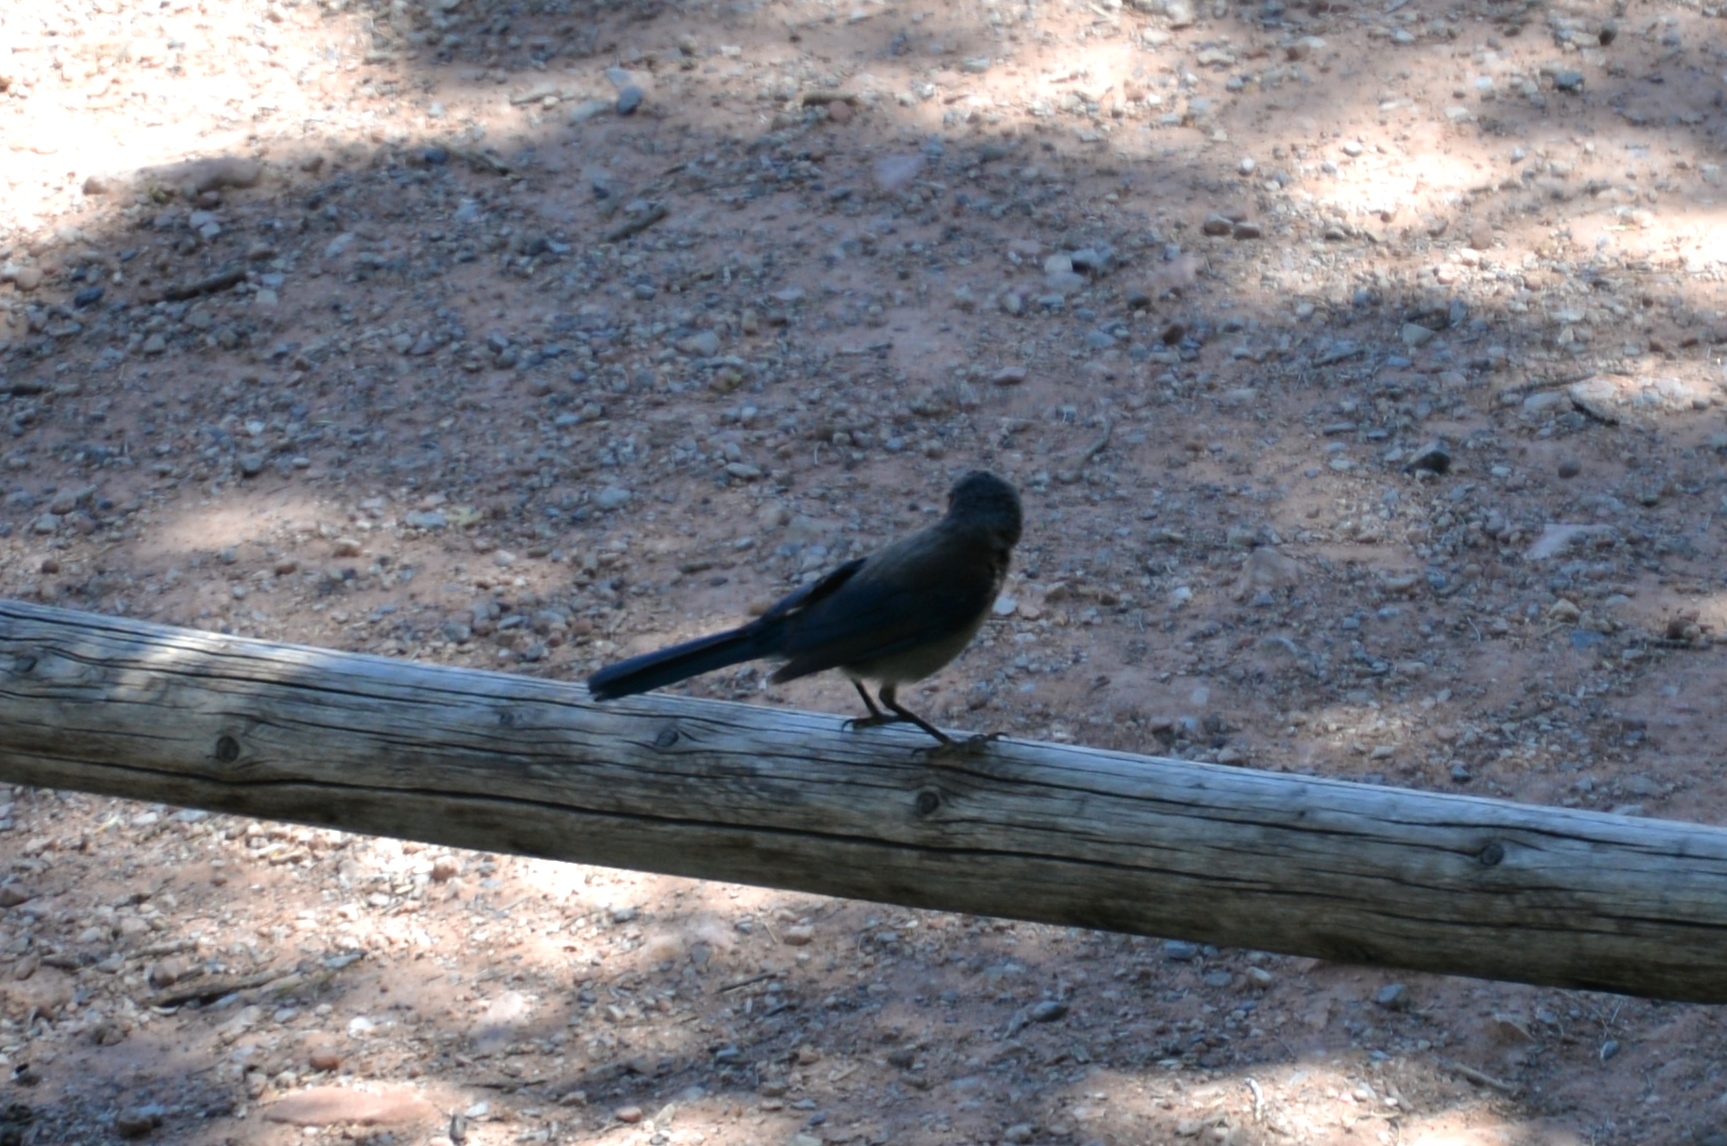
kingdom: Animalia
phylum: Chordata
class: Aves
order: Passeriformes
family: Corvidae
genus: Aphelocoma
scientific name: Aphelocoma woodhouseii
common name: Woodhouse's scrub-jay
